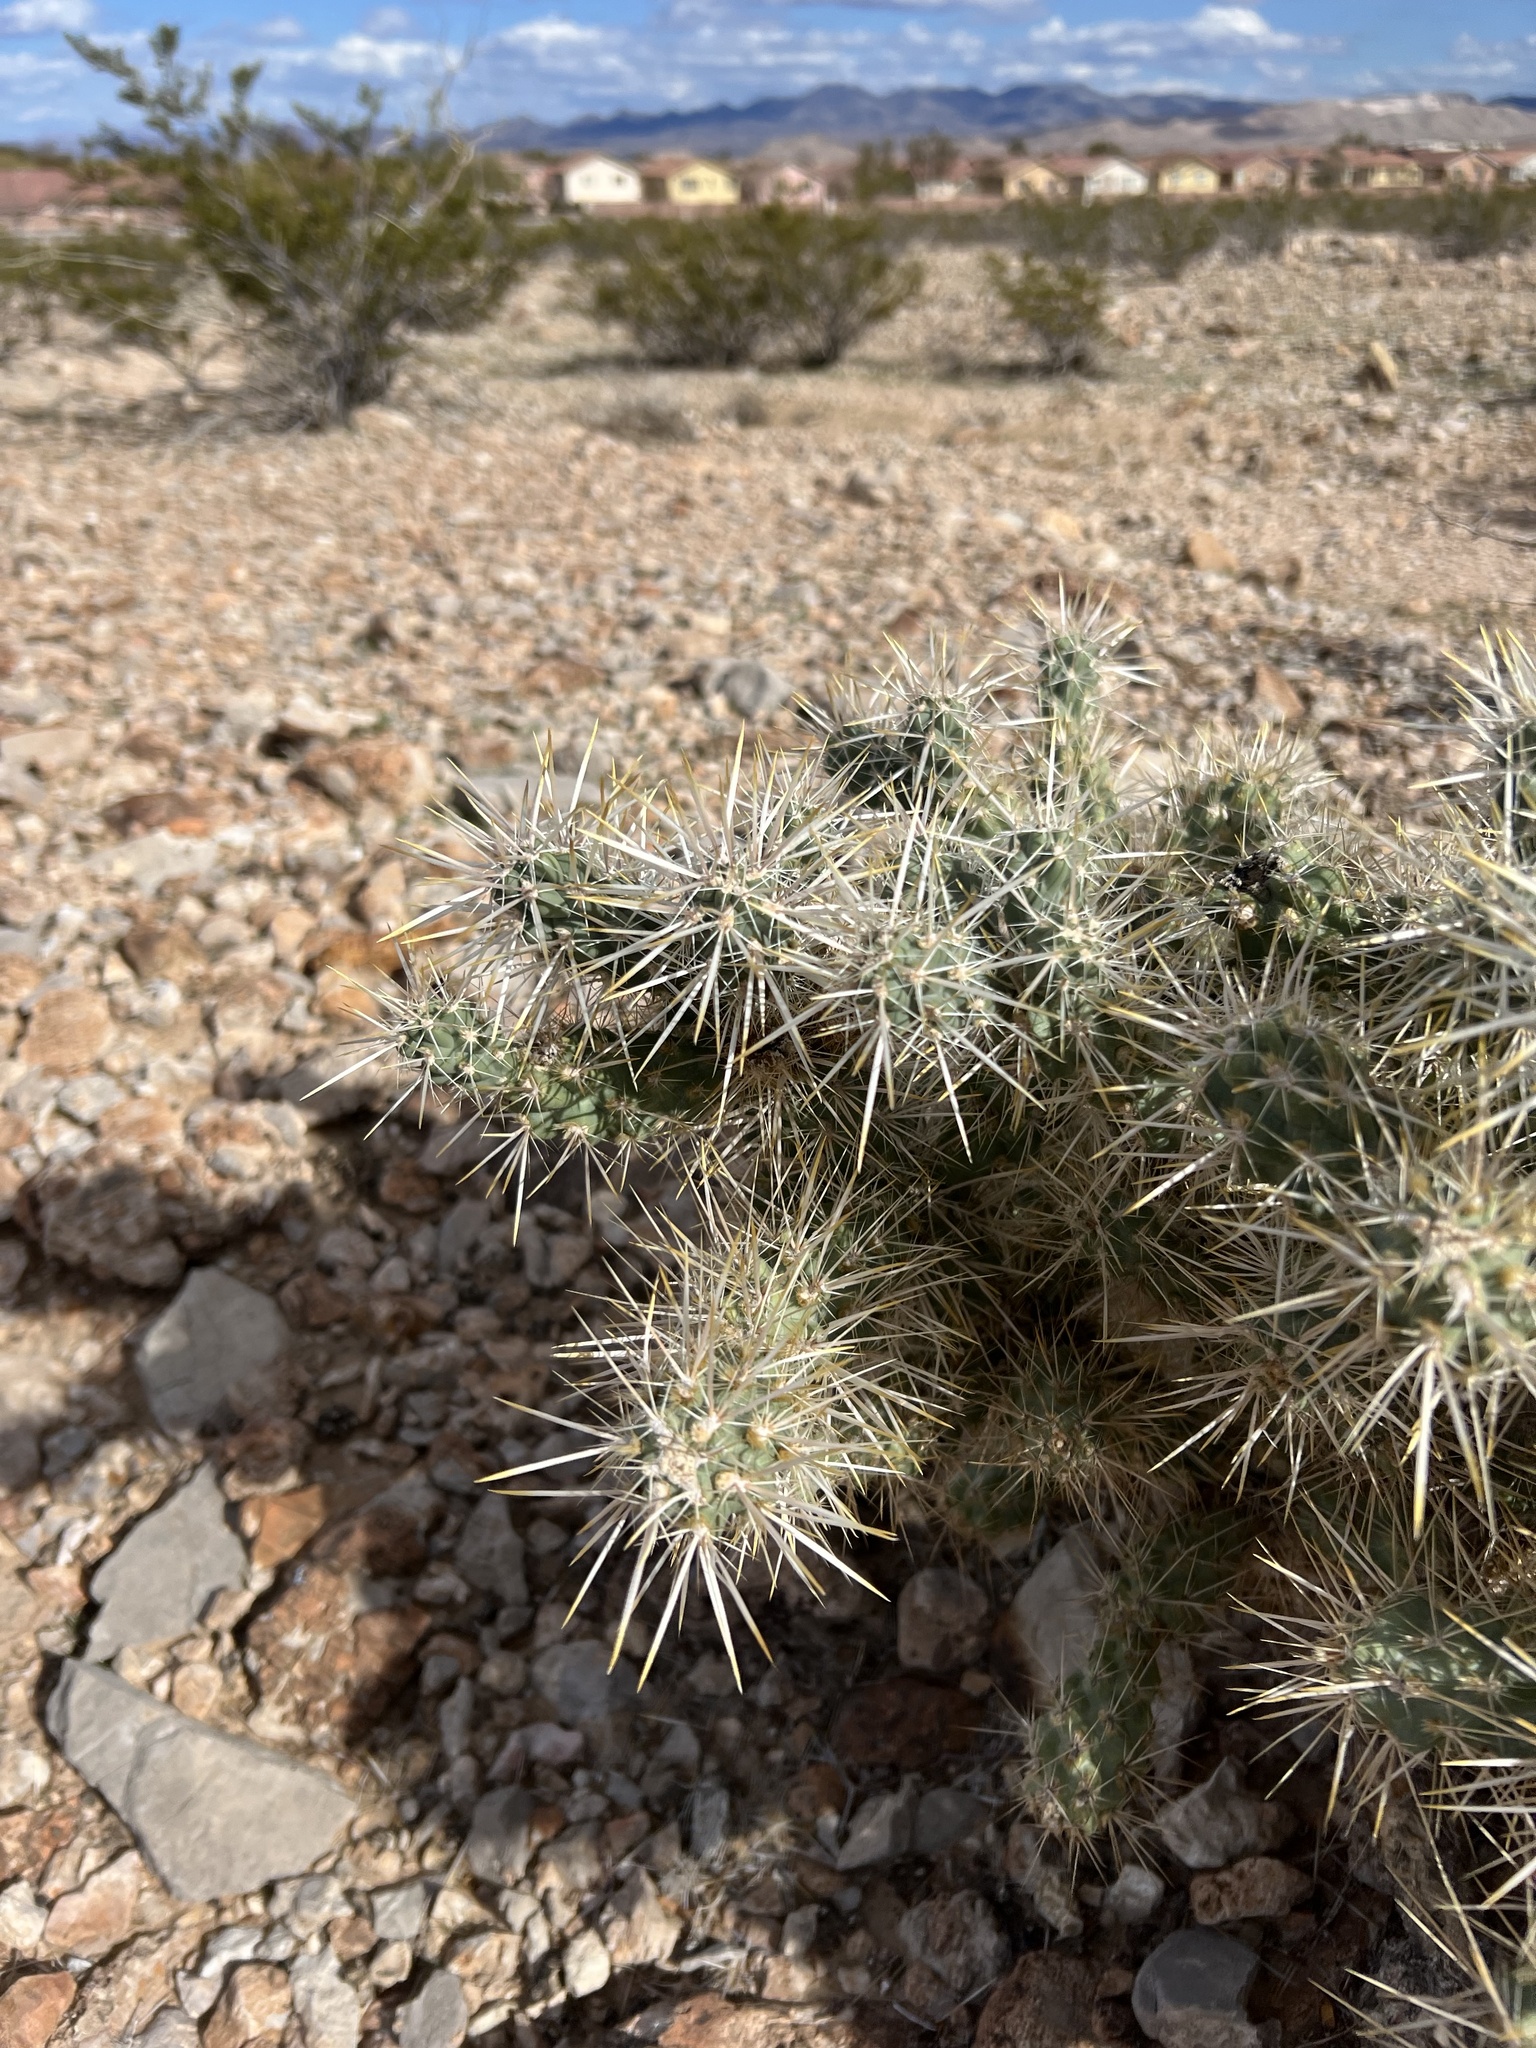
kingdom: Plantae
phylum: Tracheophyta
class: Magnoliopsida
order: Caryophyllales
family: Cactaceae
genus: Cylindropuntia
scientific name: Cylindropuntia echinocarpa
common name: Ground cholla
